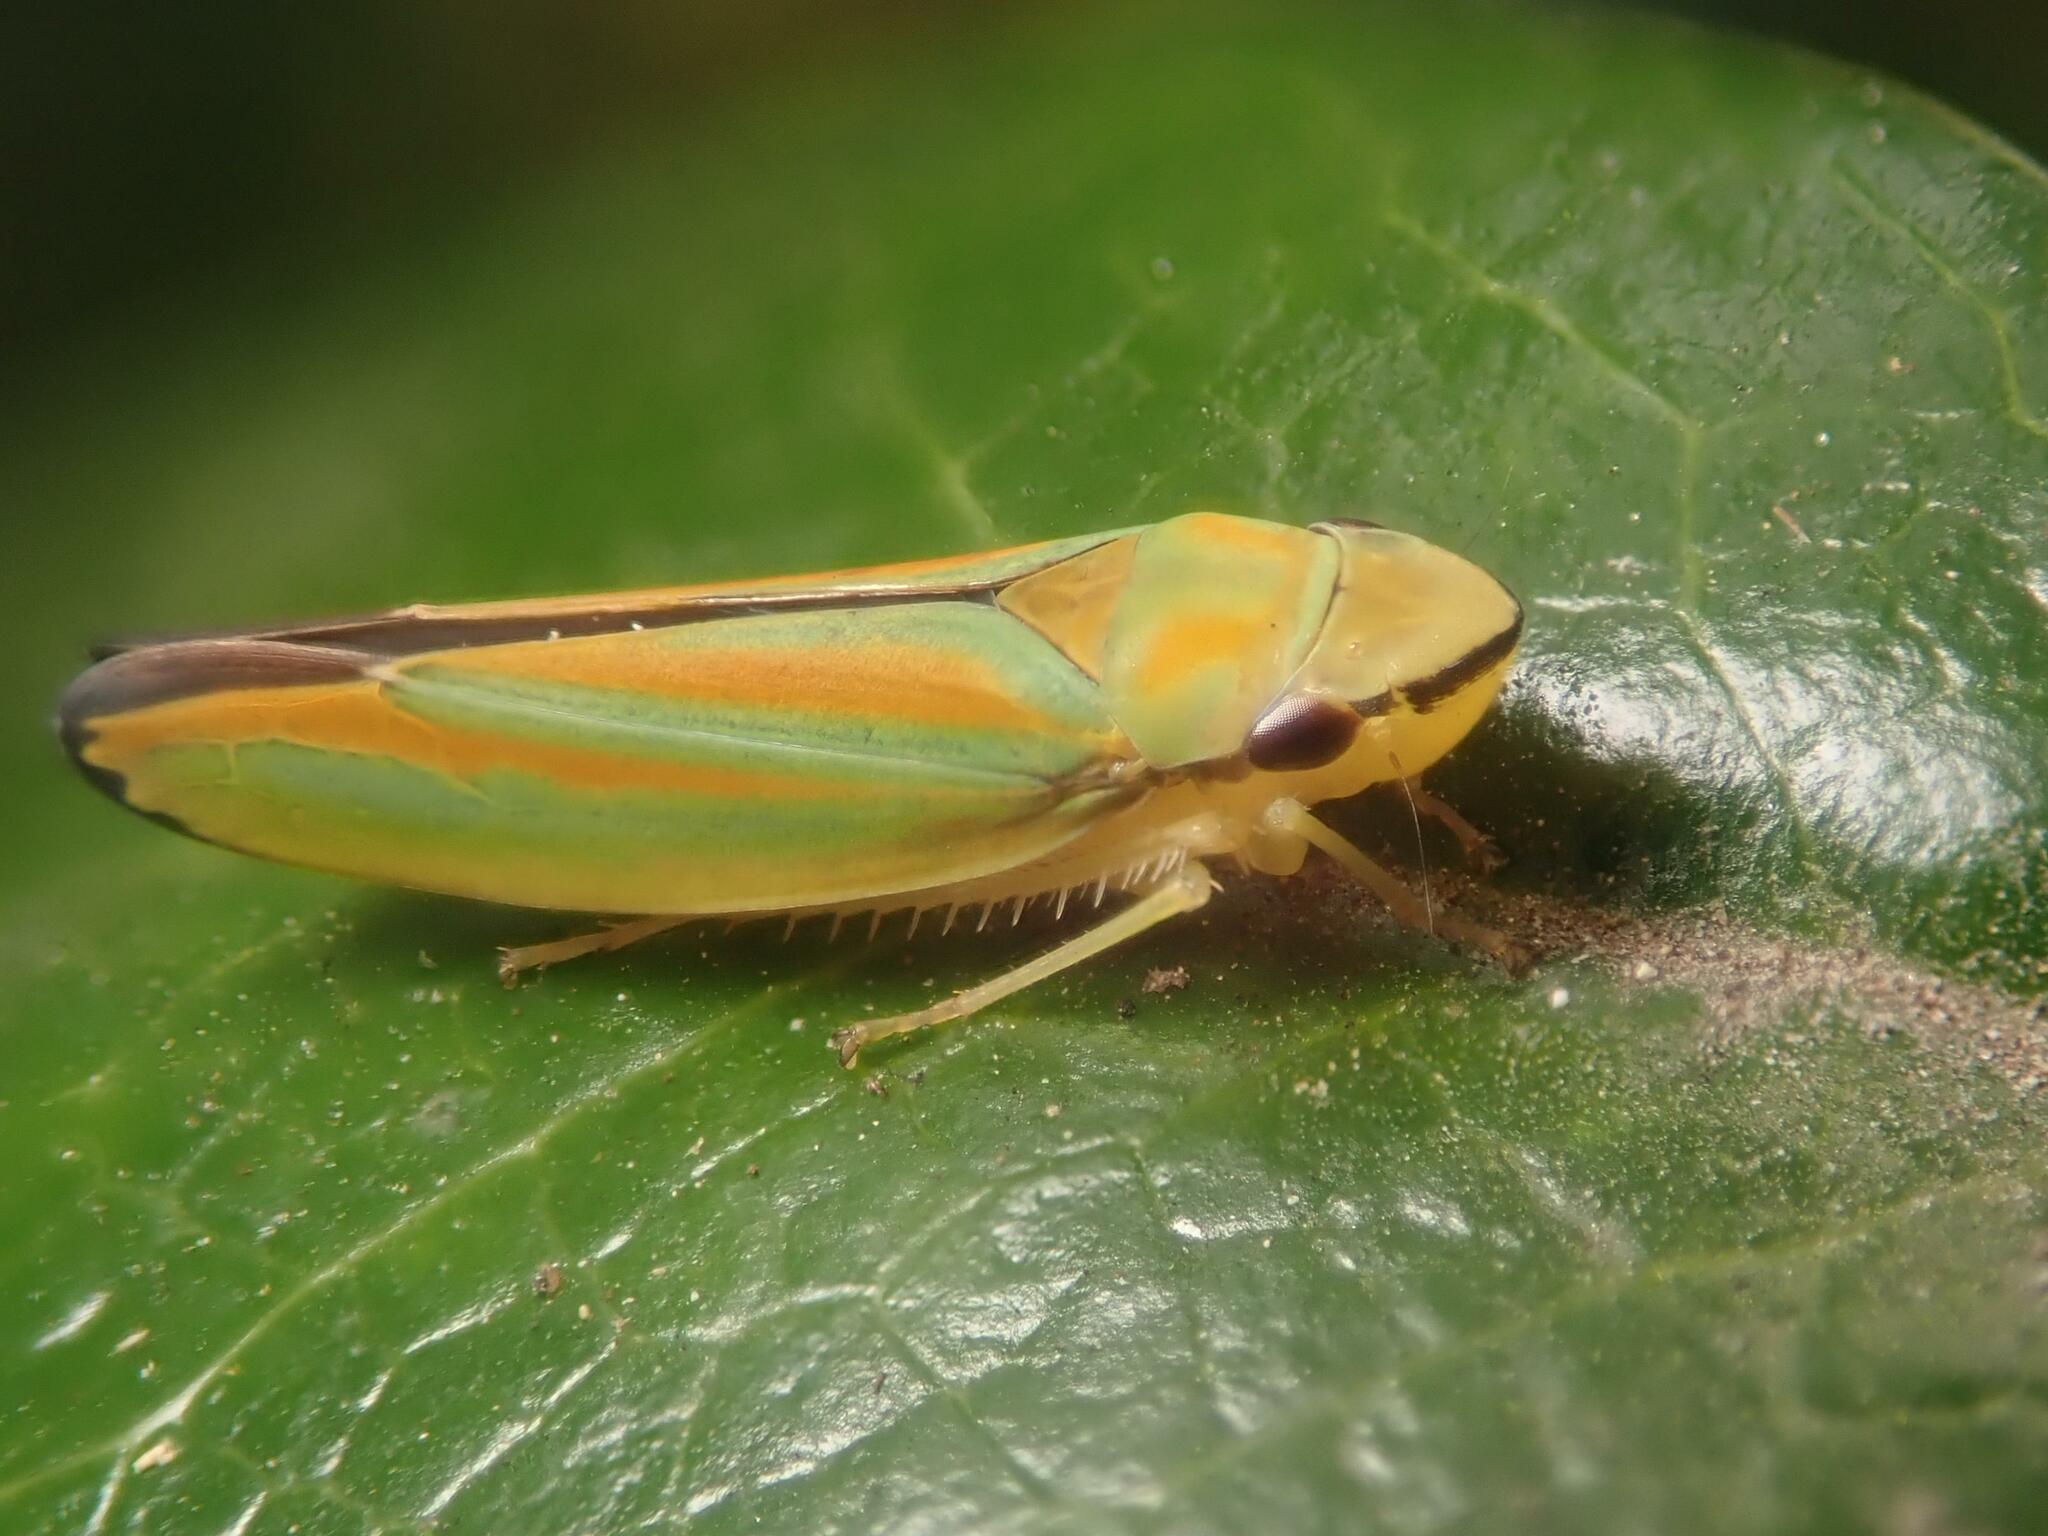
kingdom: Animalia
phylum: Arthropoda
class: Insecta
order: Hemiptera
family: Cicadellidae
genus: Graphocephala
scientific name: Graphocephala fennahi
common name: Rhododendron leafhopper
